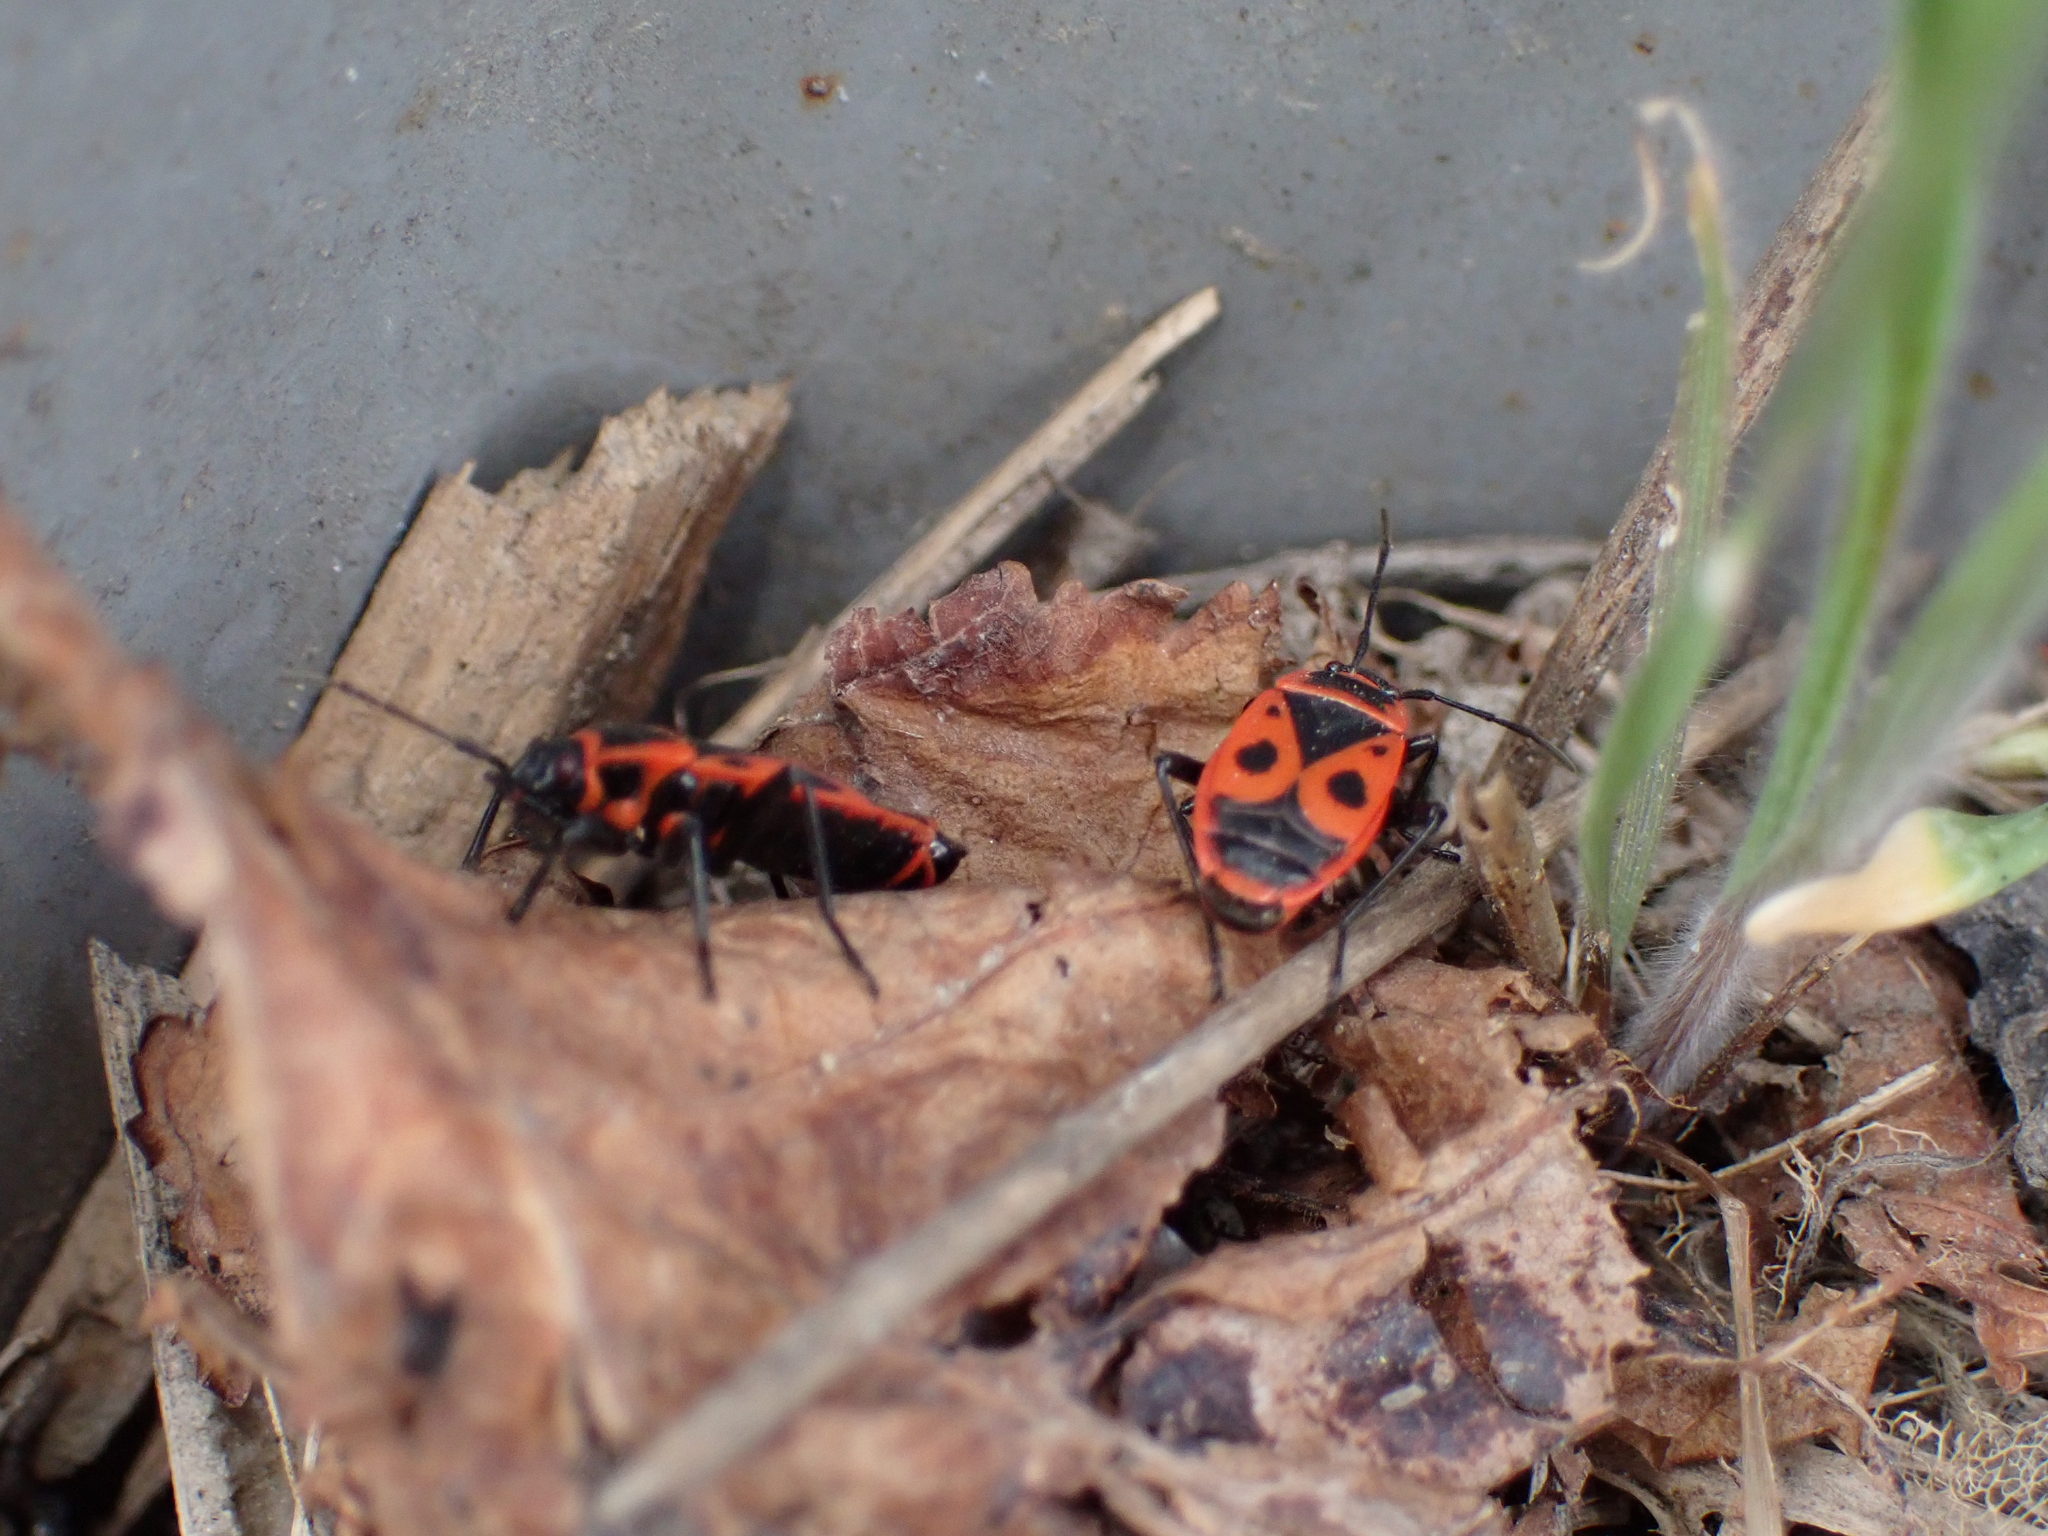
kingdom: Animalia
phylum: Arthropoda
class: Insecta
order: Hemiptera
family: Pyrrhocoridae
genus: Pyrrhocoris
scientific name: Pyrrhocoris apterus
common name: Firebug
